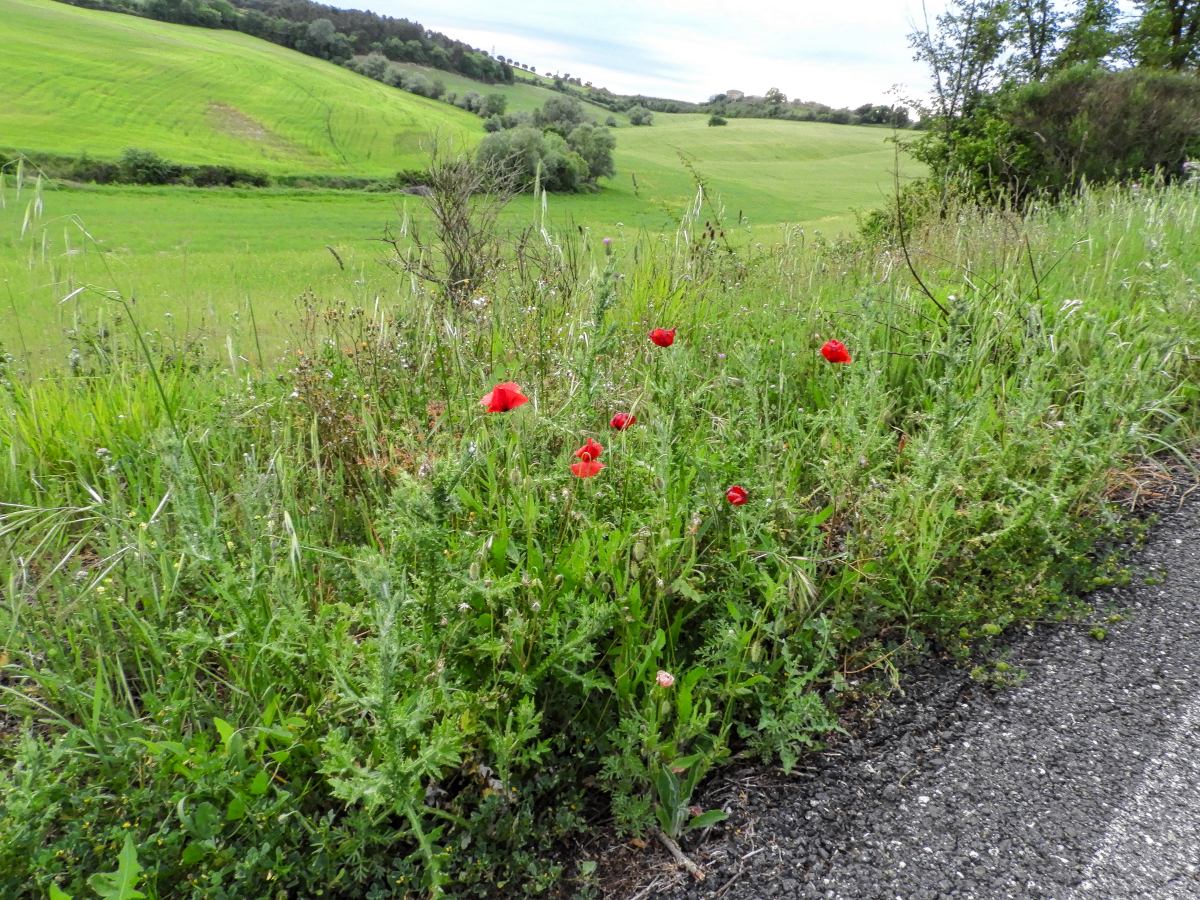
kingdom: Plantae
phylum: Tracheophyta
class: Magnoliopsida
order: Ranunculales
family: Papaveraceae
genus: Papaver
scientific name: Papaver rhoeas
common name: Corn poppy
